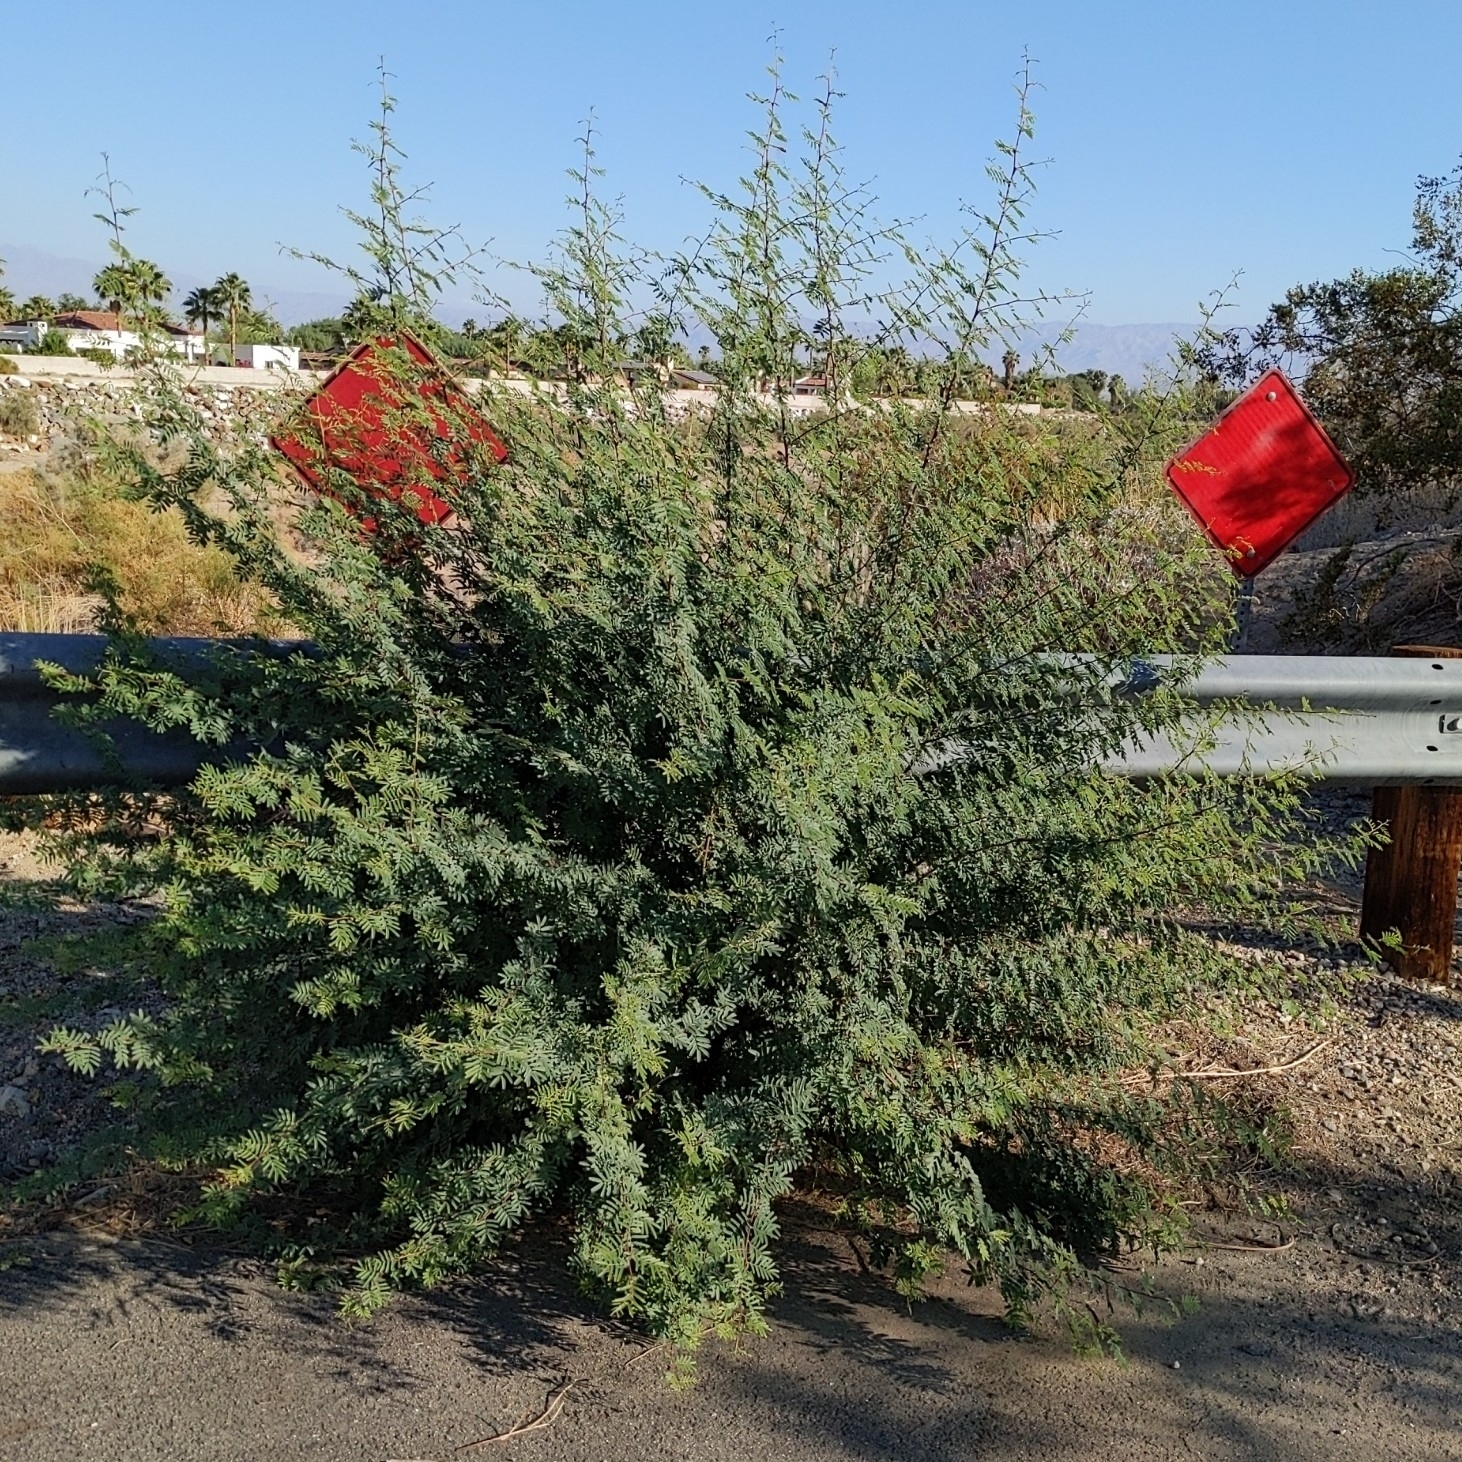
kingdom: Plantae
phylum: Tracheophyta
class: Magnoliopsida
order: Fabales
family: Fabaceae
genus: Vachellia
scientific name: Vachellia farnesiana
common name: Sweet acacia
